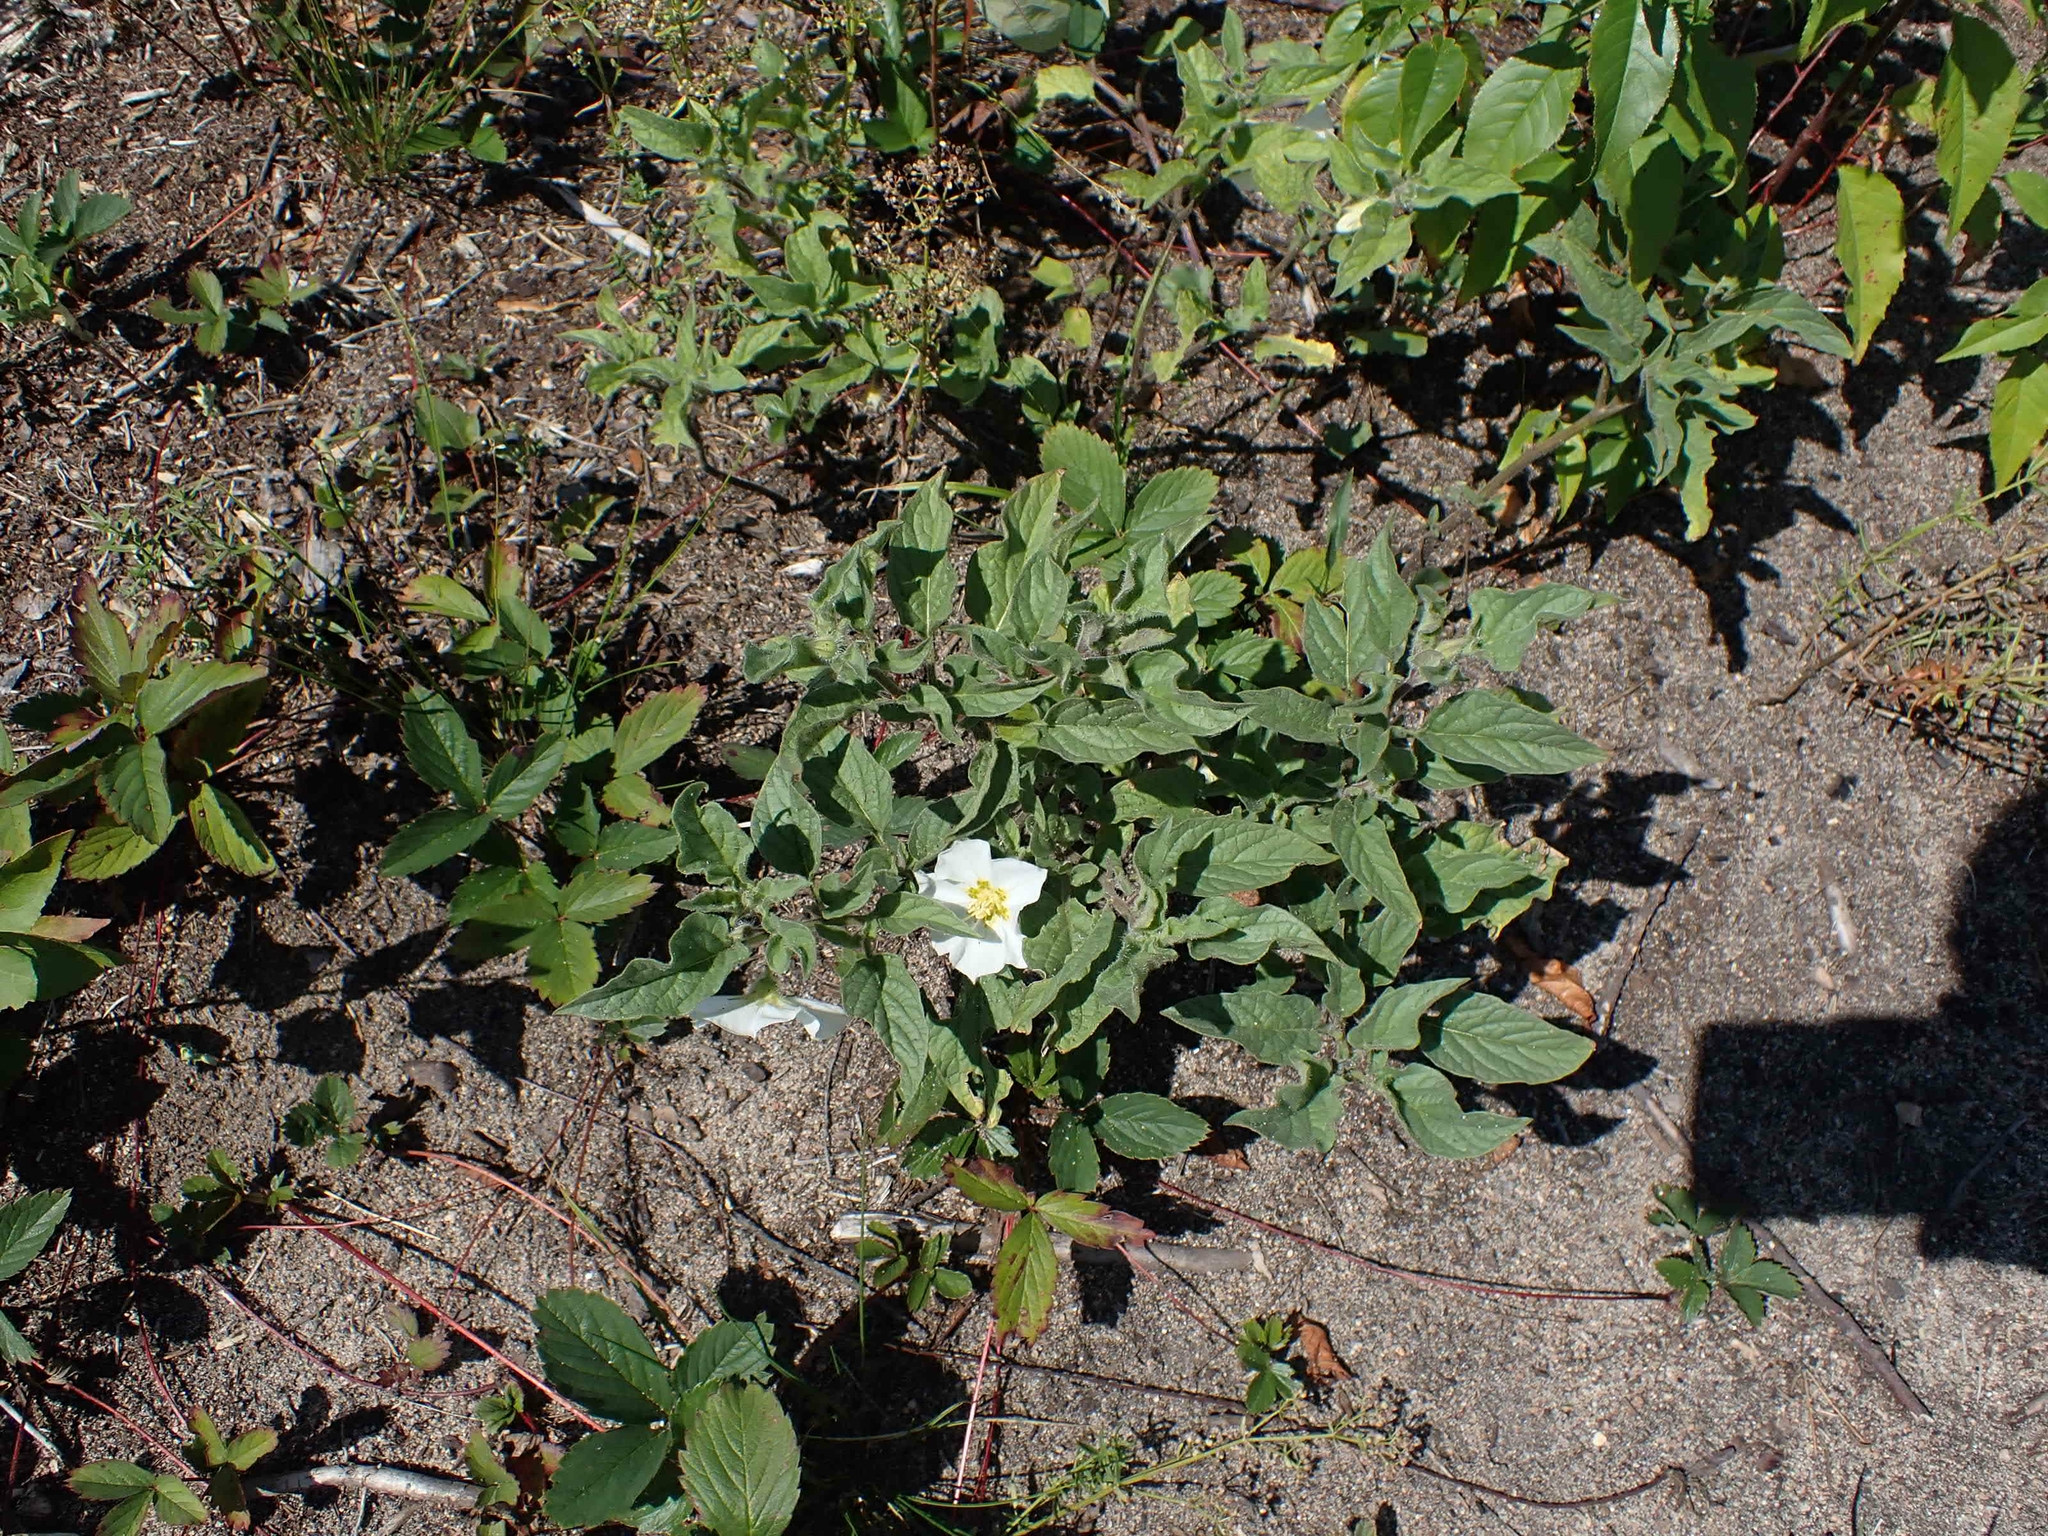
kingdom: Plantae
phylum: Tracheophyta
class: Magnoliopsida
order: Solanales
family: Solanaceae
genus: Leucophysalis
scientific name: Leucophysalis grandiflora
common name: Large false ground-cherry
